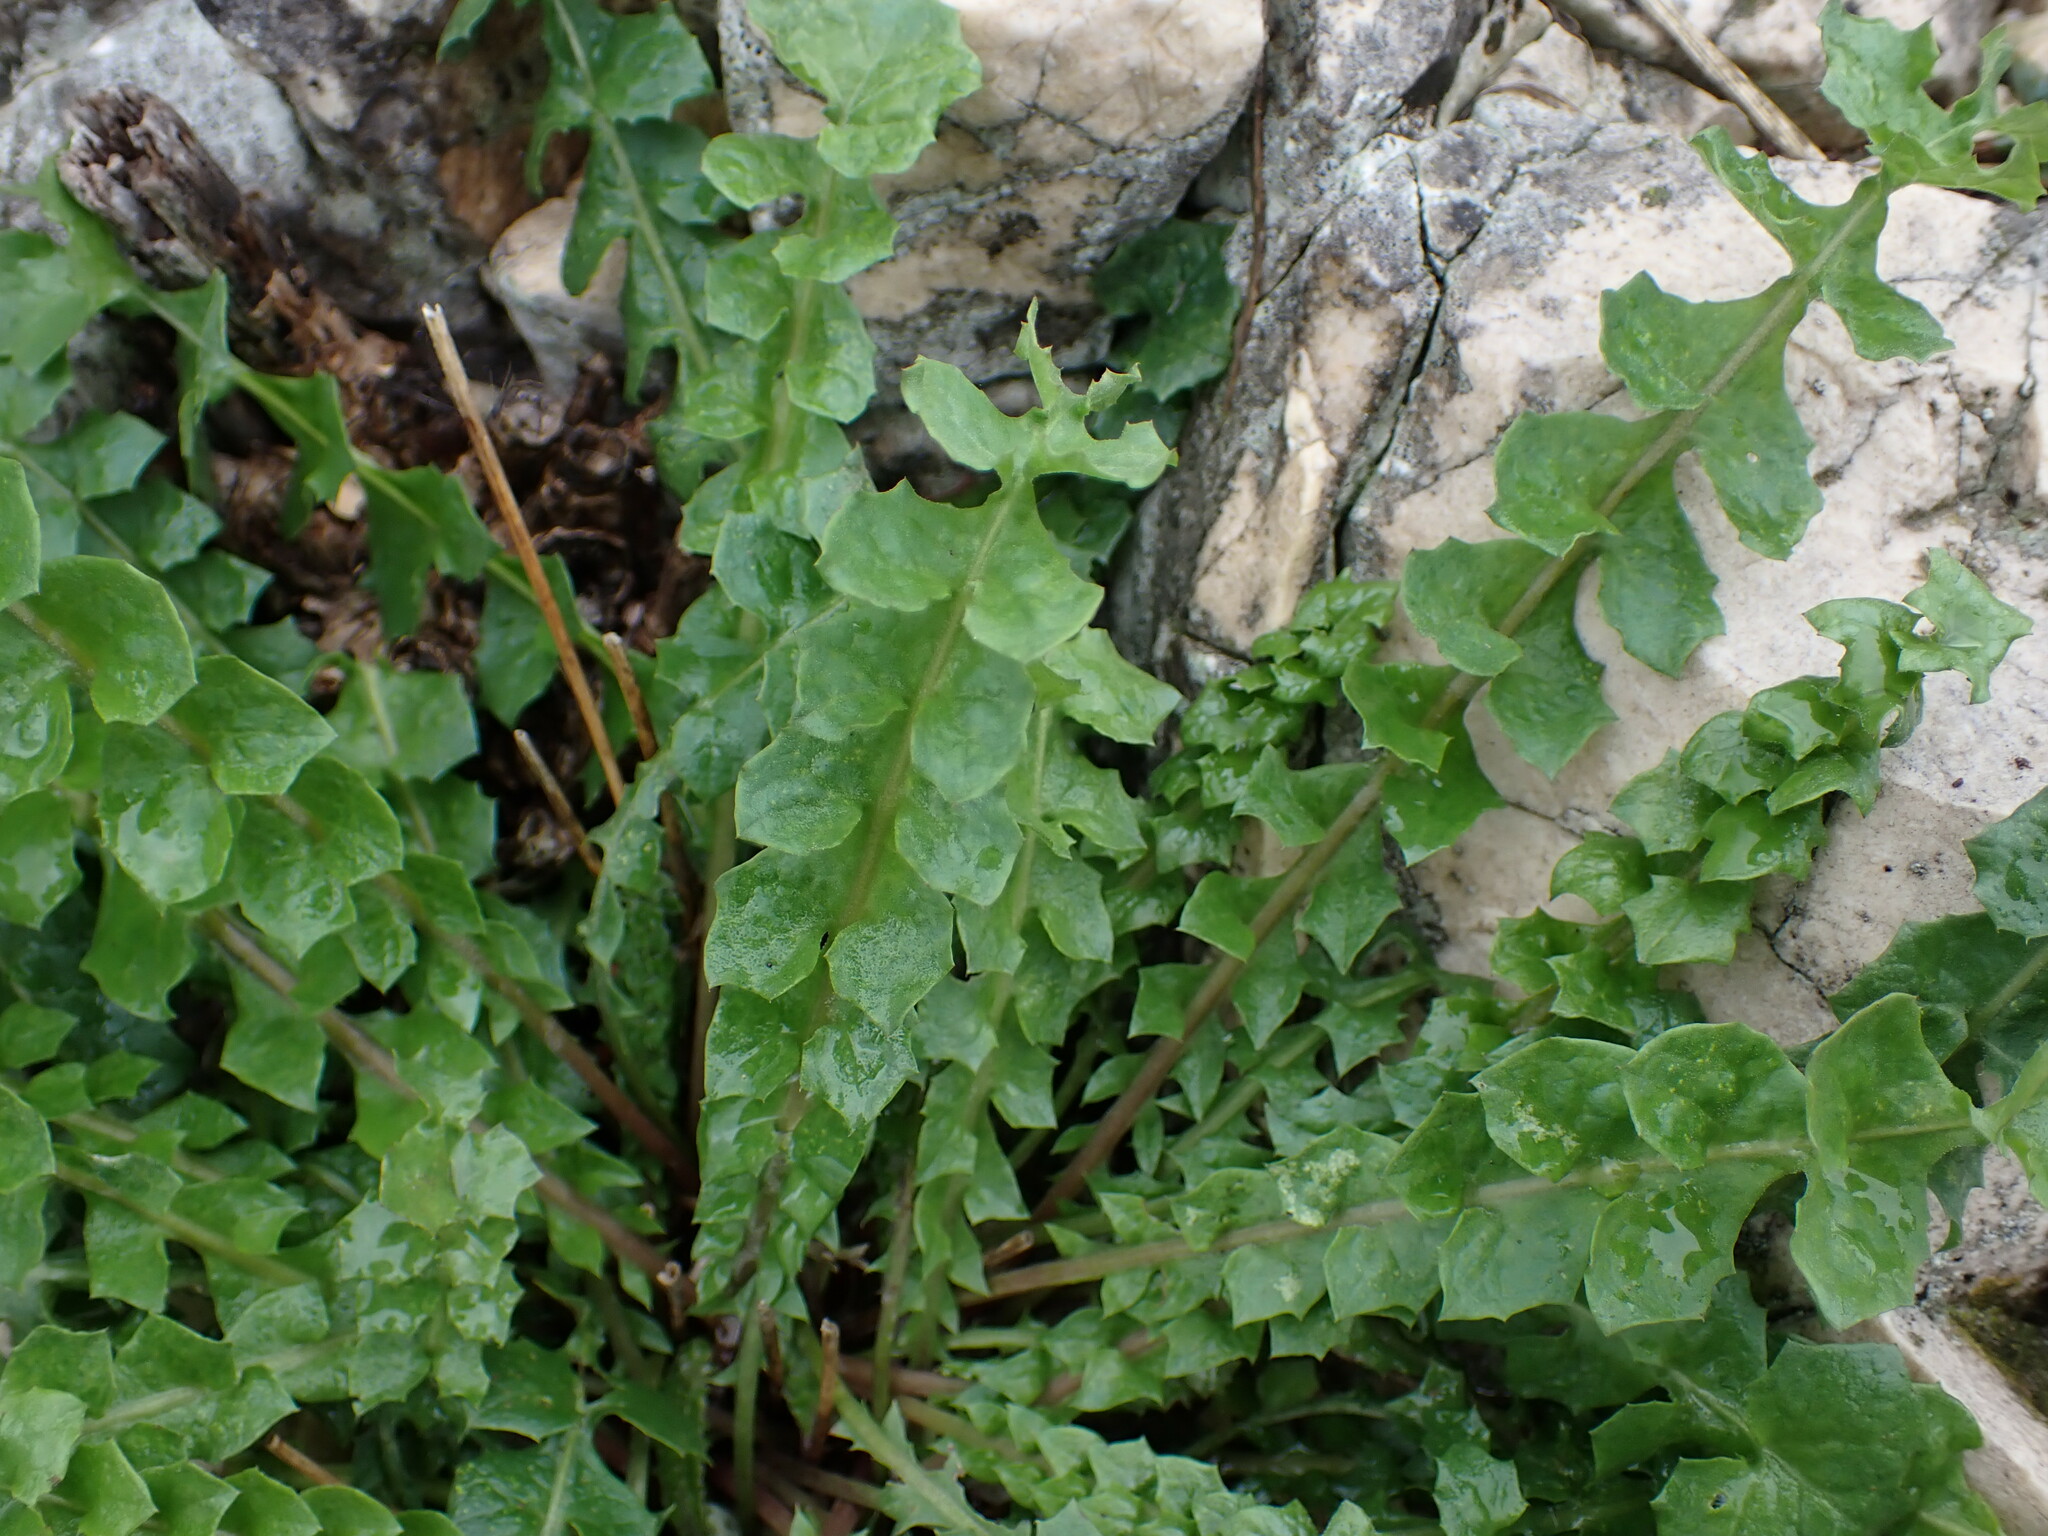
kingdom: Plantae
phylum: Tracheophyta
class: Magnoliopsida
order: Asterales
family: Asteraceae
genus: Hyoseris
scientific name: Hyoseris radiata
